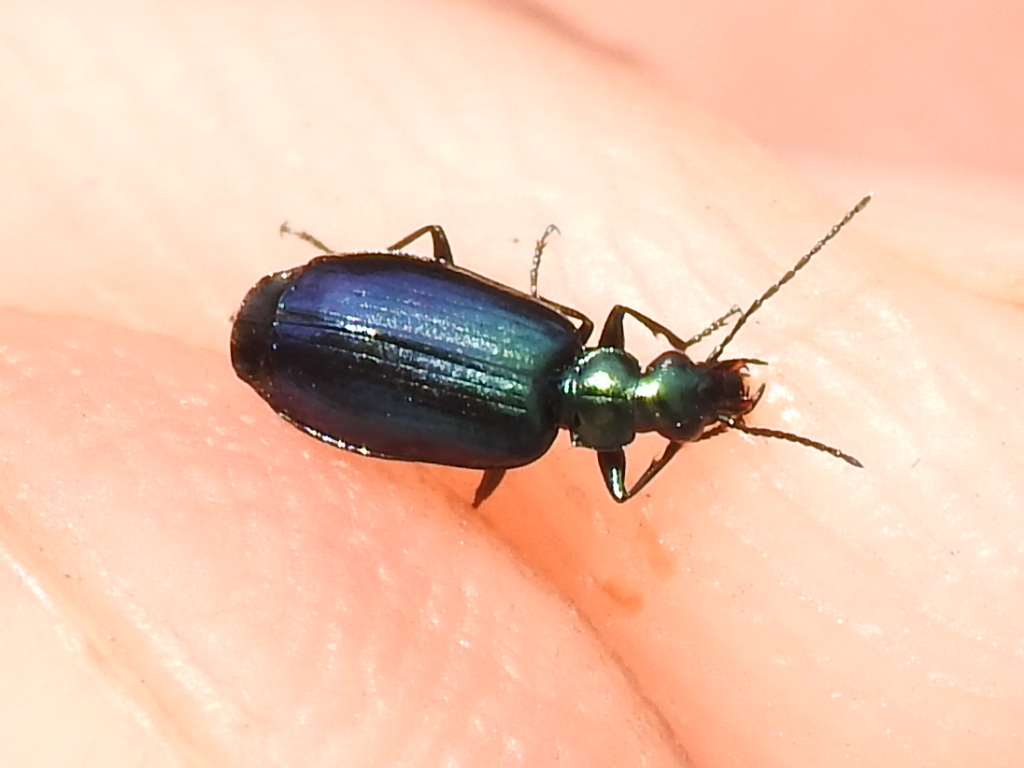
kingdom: Animalia
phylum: Arthropoda
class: Insecta
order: Coleoptera
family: Carabidae
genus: Lebia
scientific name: Lebia viridis
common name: Flower lebia beetle
